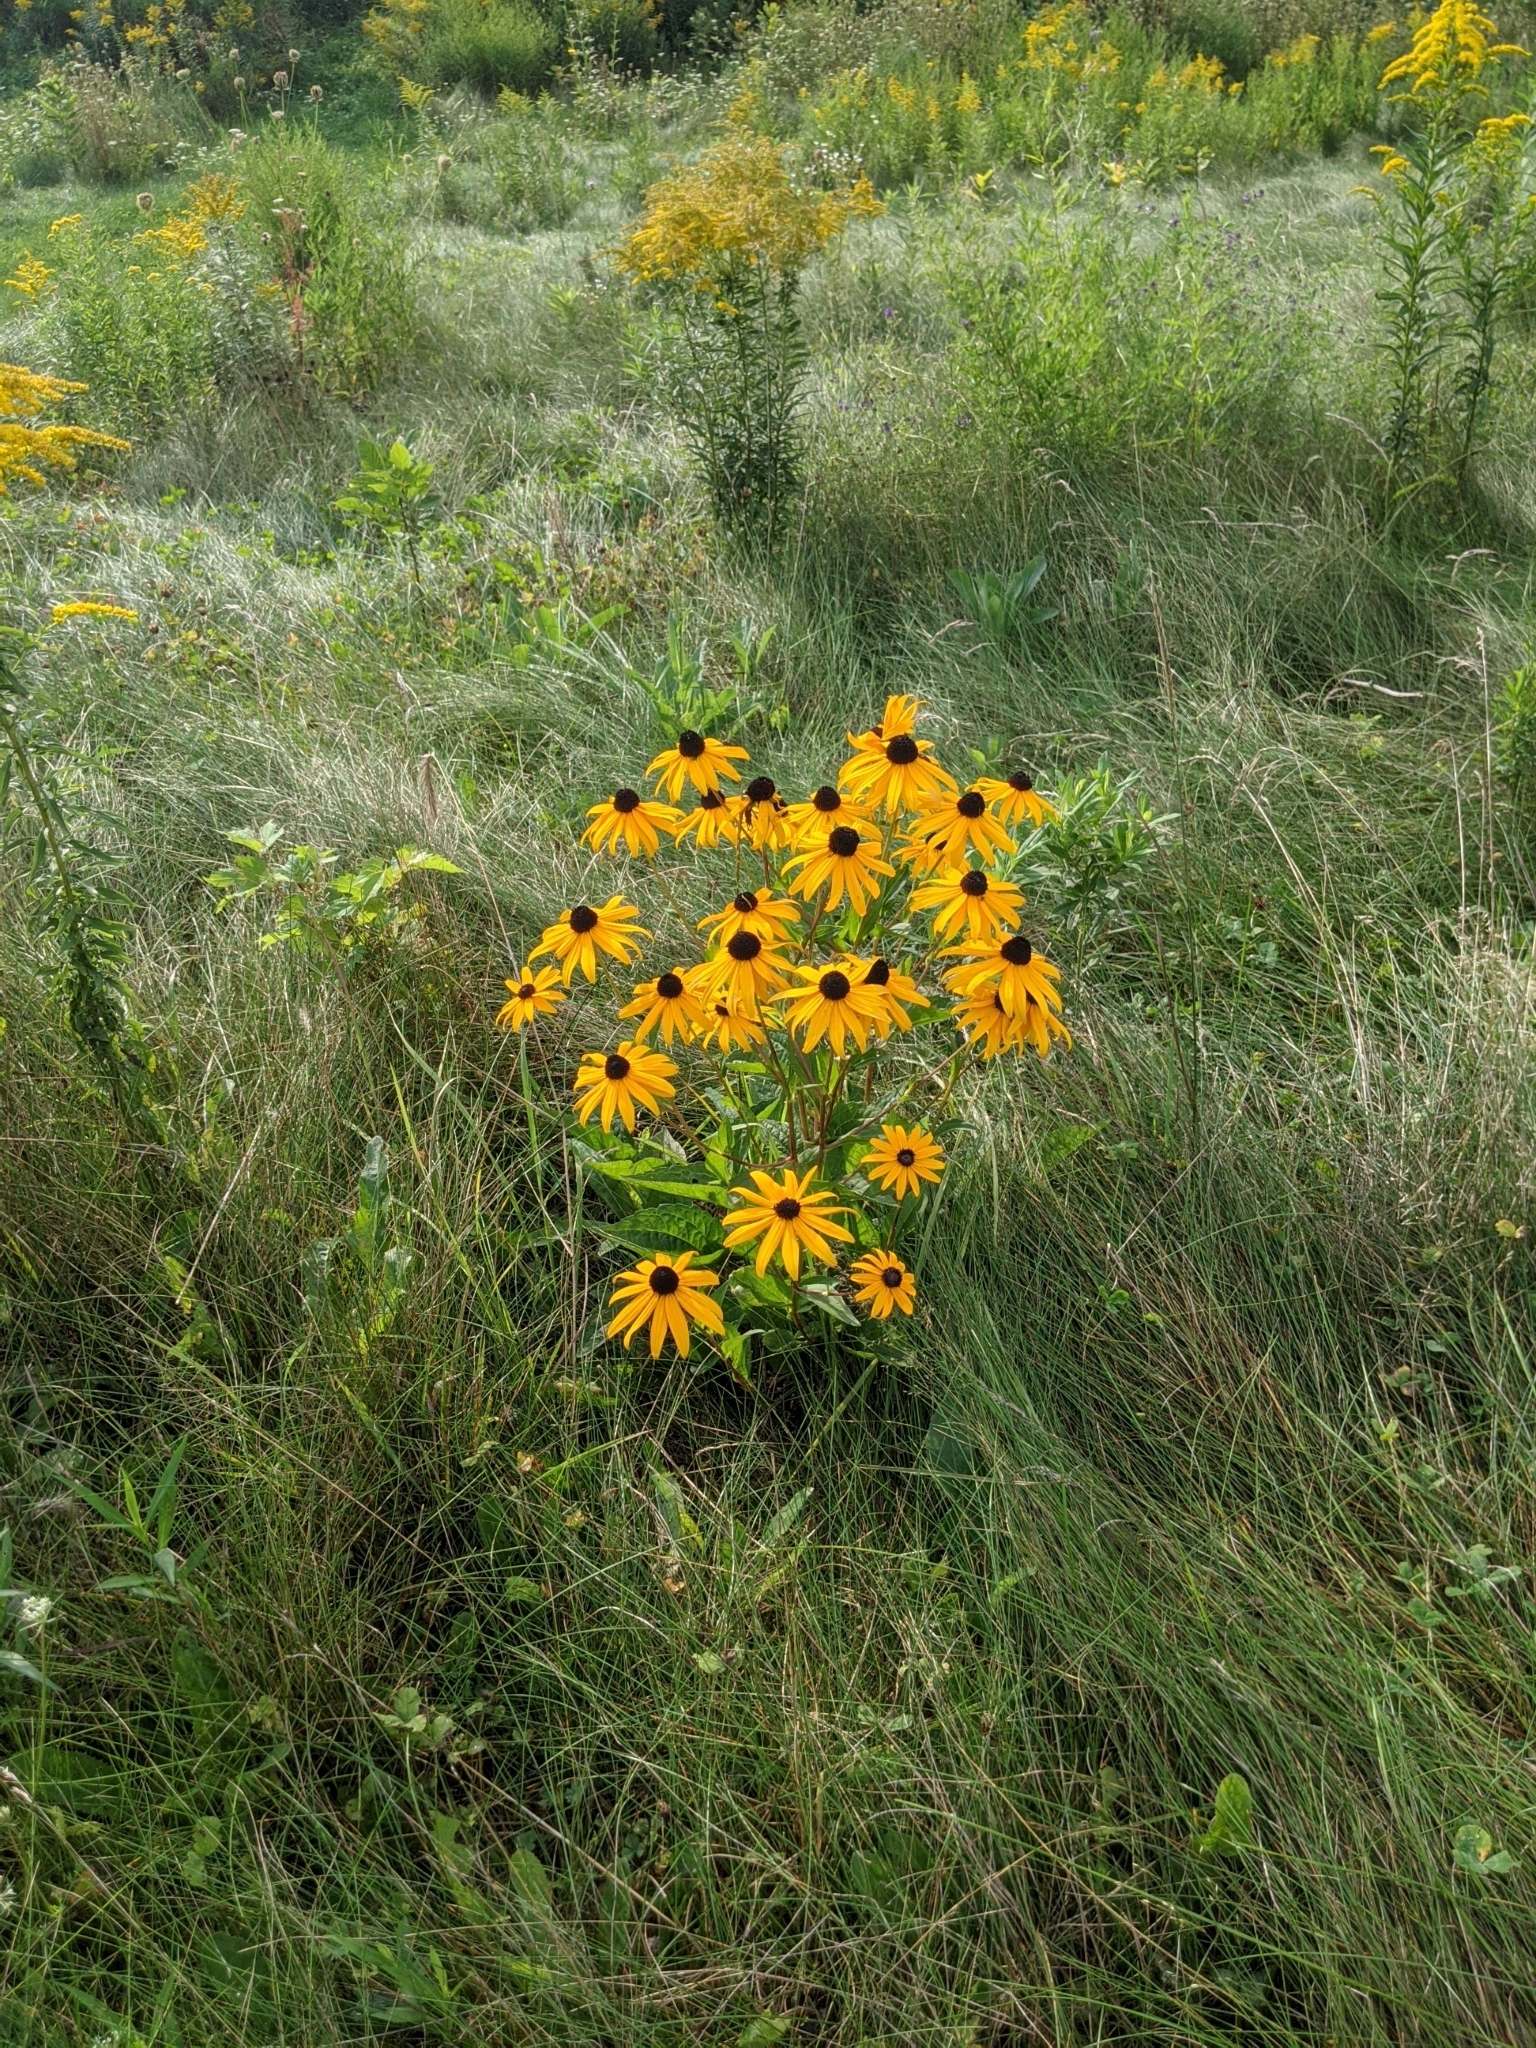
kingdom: Plantae
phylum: Tracheophyta
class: Magnoliopsida
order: Asterales
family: Asteraceae
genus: Rudbeckia
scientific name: Rudbeckia triloba
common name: Thin-leaved coneflower
